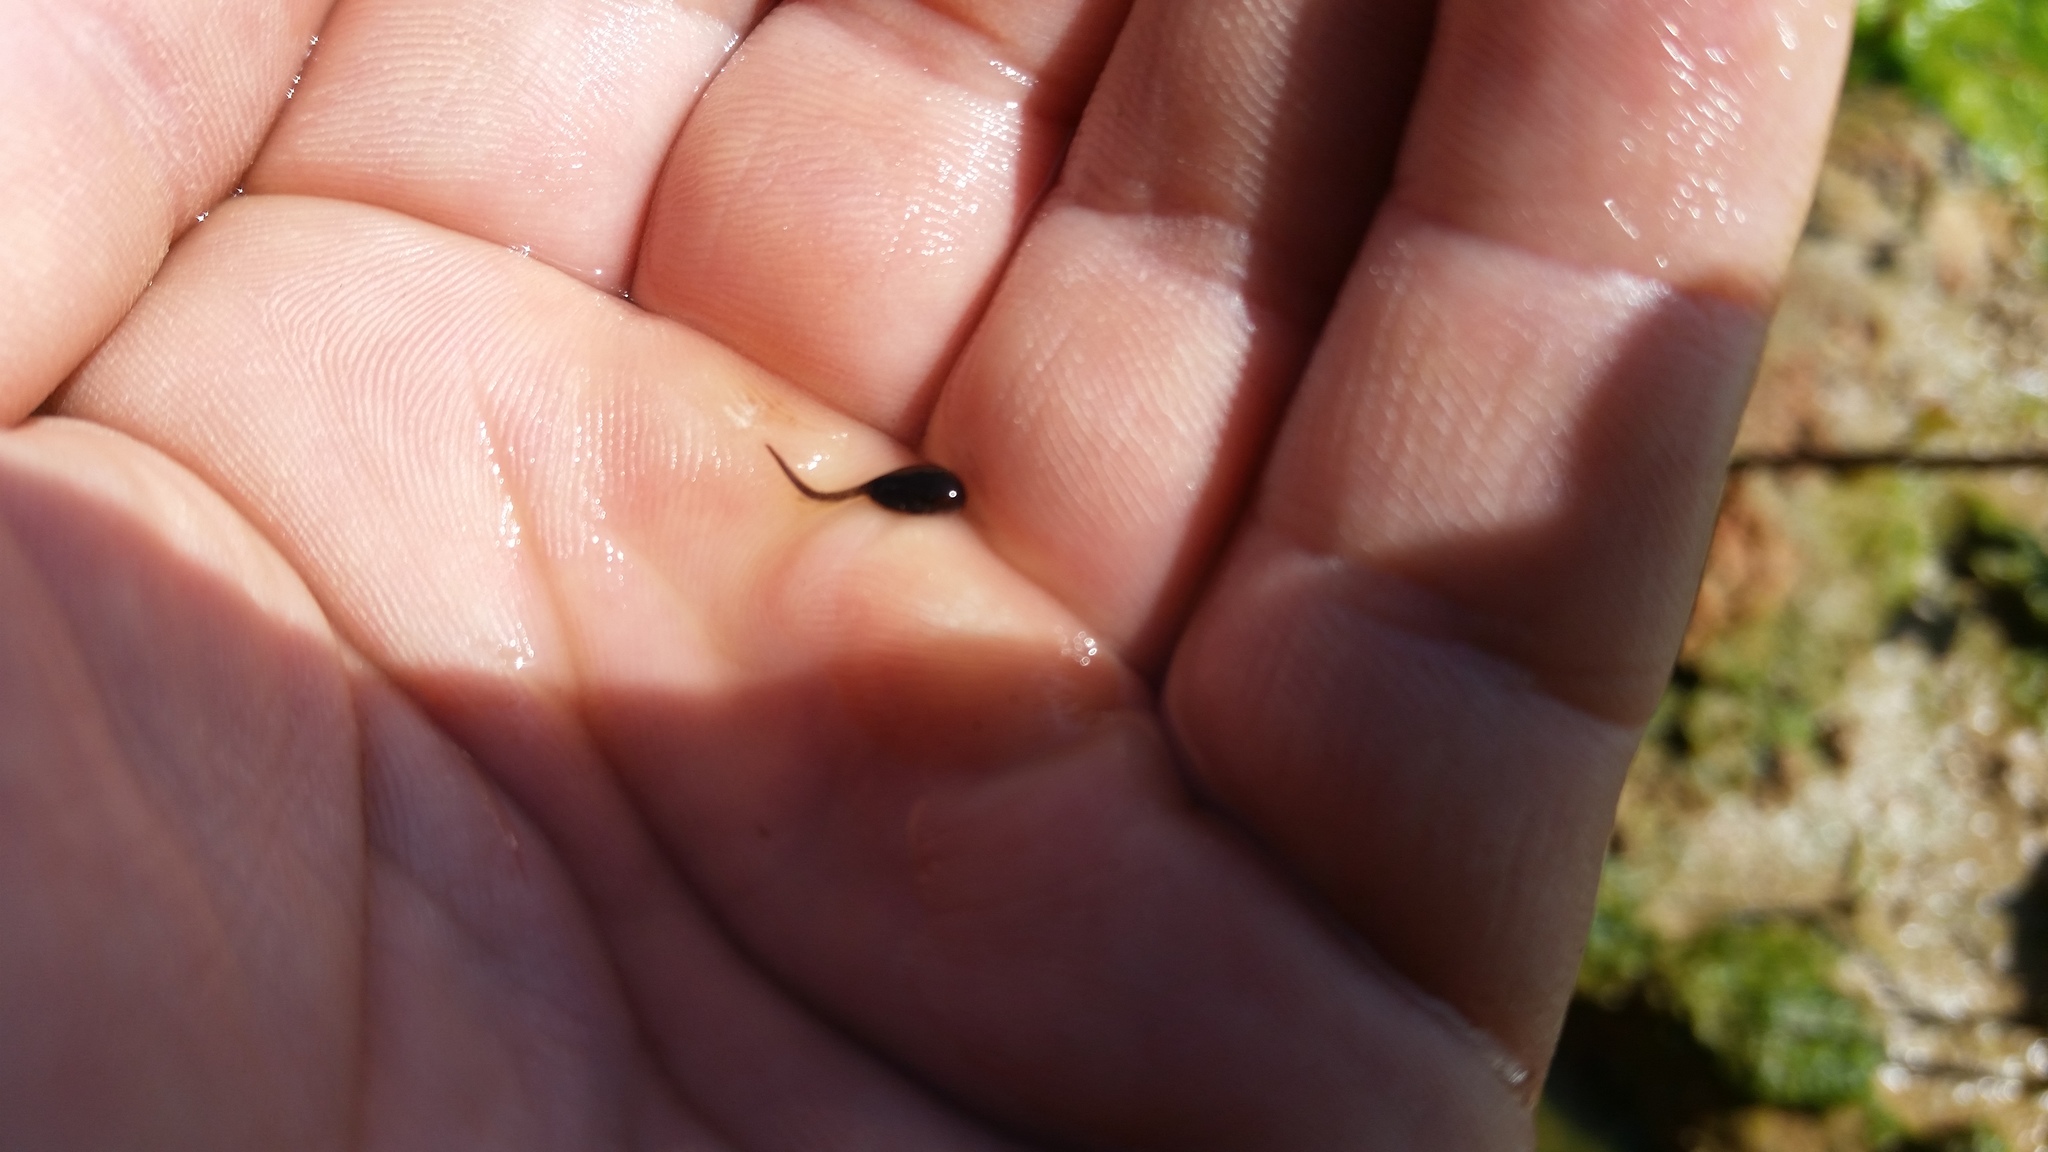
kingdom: Animalia
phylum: Chordata
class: Amphibia
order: Anura
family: Bufonidae
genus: Anaxyrus
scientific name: Anaxyrus americanus
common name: American toad
